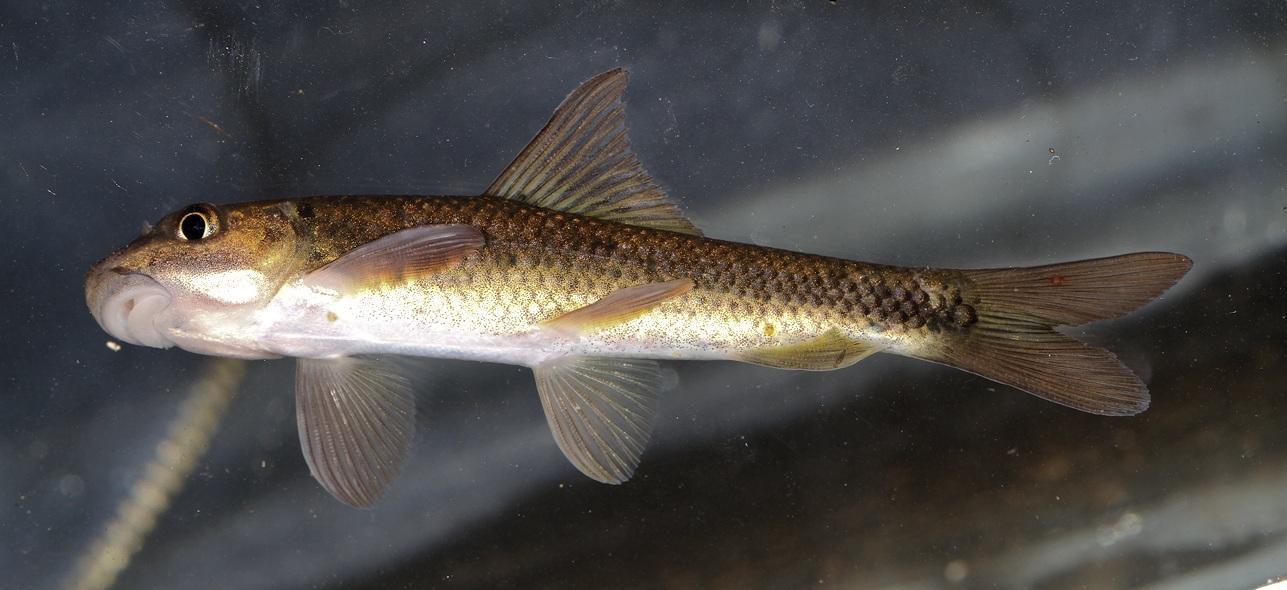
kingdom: Animalia
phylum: Chordata
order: Cypriniformes
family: Cyprinidae
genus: Labeo
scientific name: Labeo cylindricus
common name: Redeye labeo
